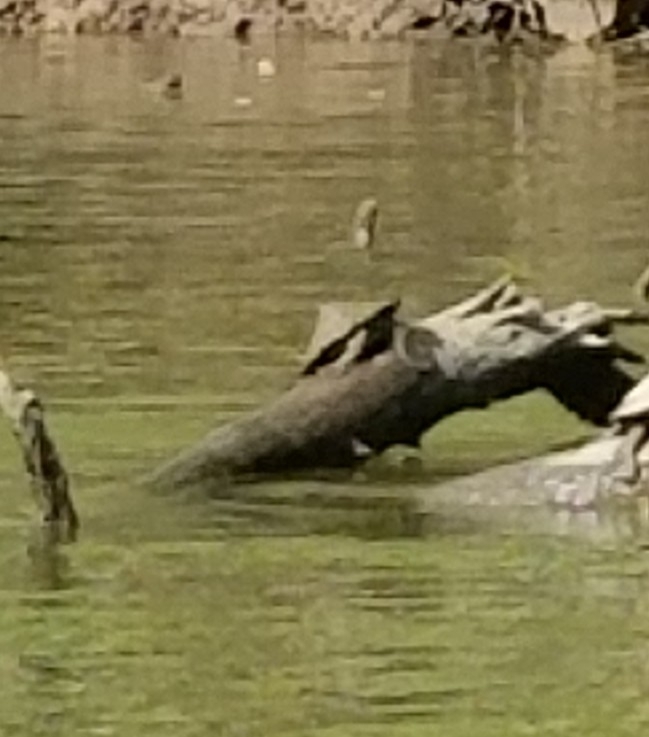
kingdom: Animalia
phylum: Chordata
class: Testudines
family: Emydidae
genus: Graptemys
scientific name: Graptemys ouachitensis
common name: Ouachita map turtle
